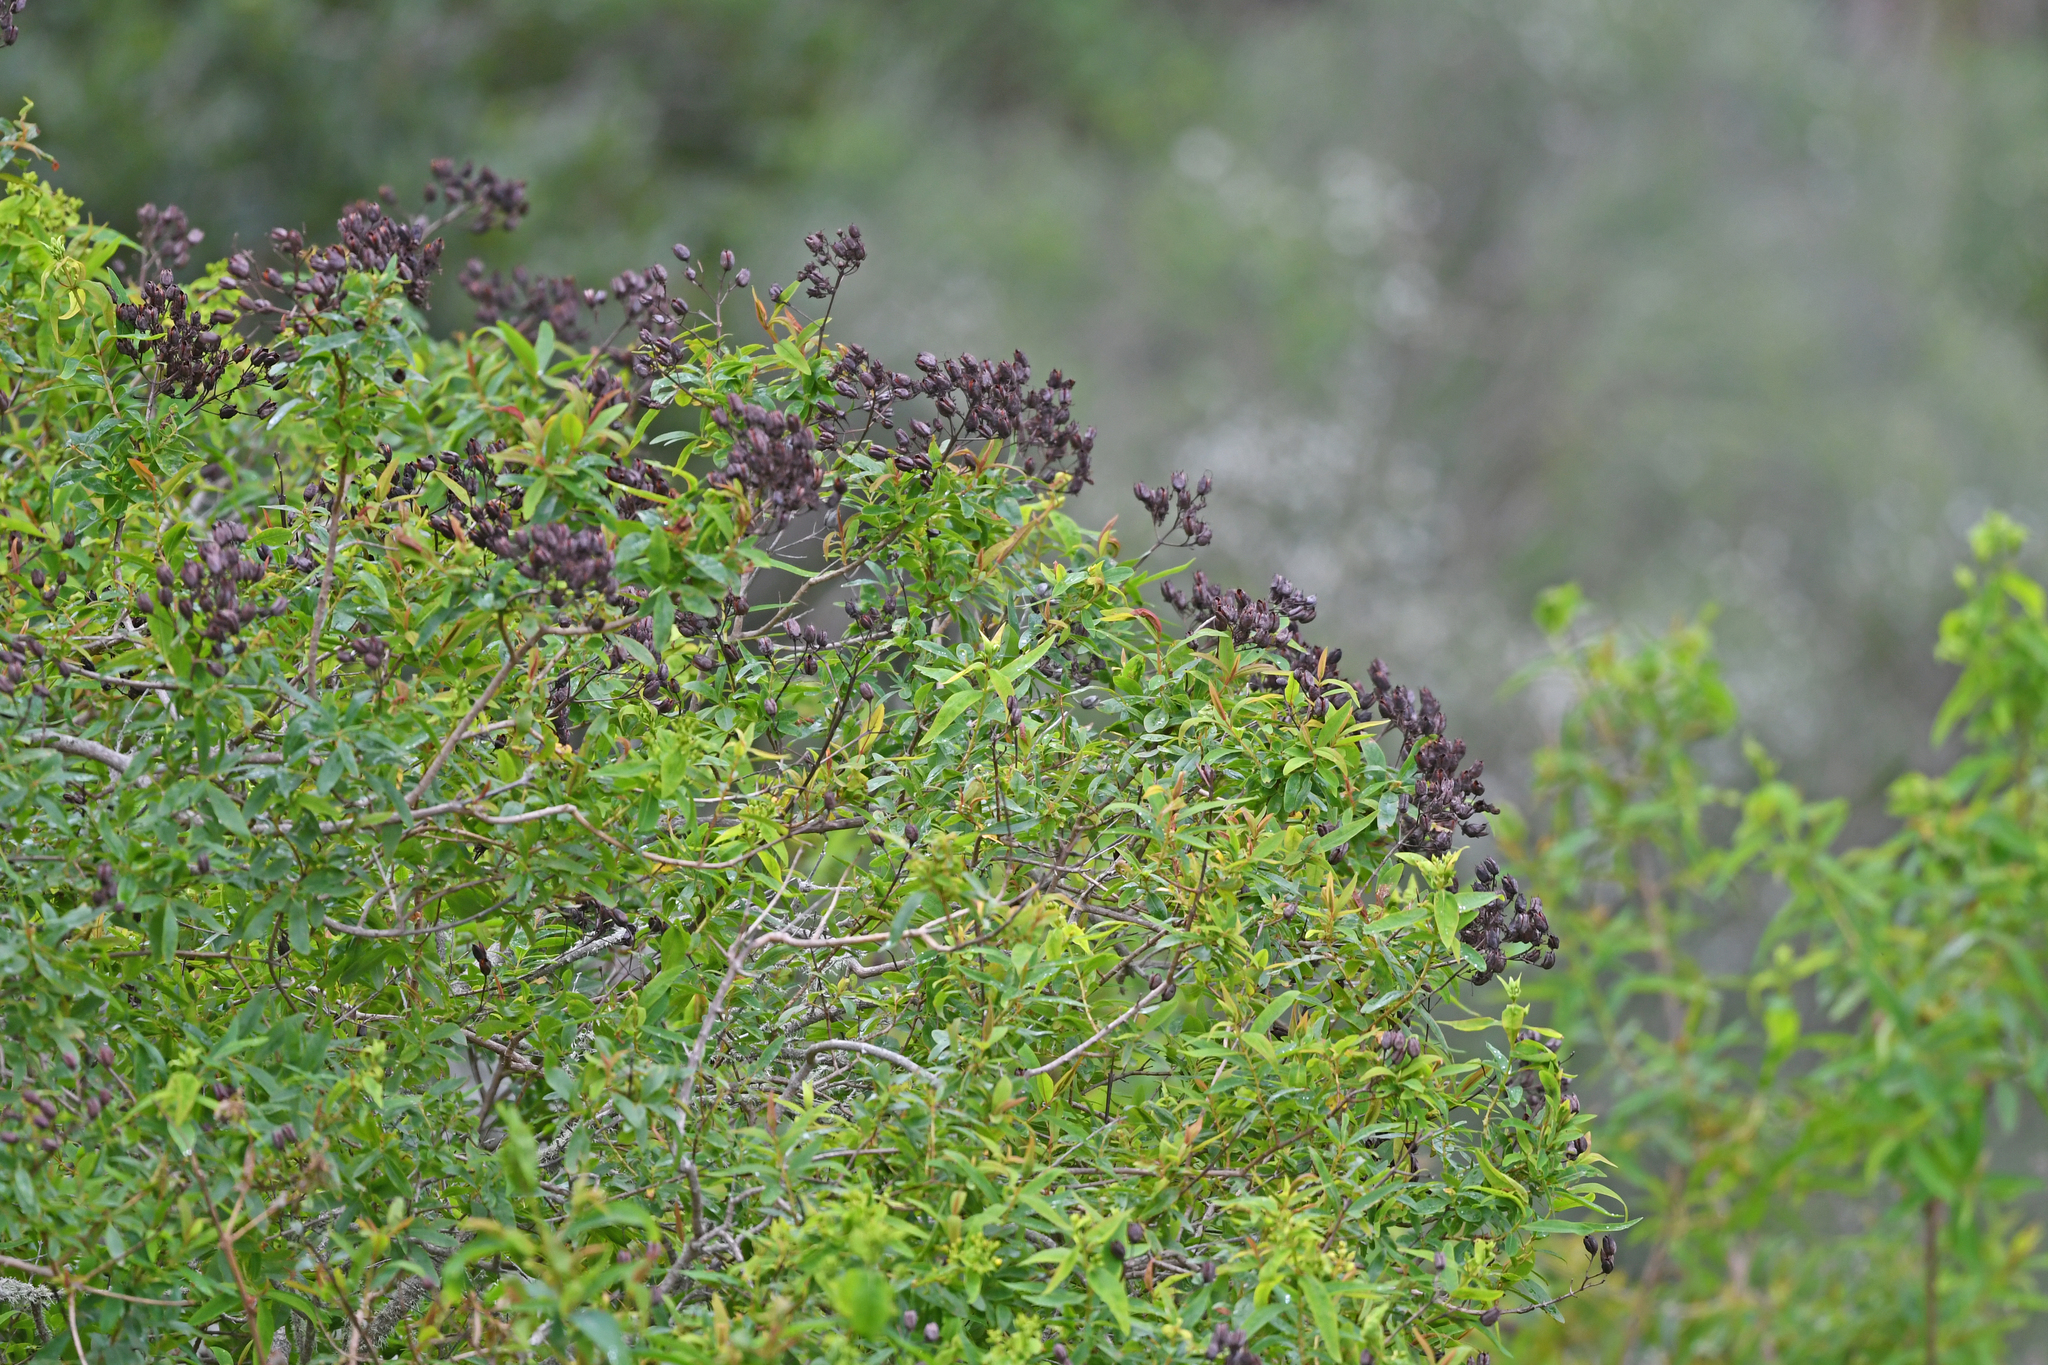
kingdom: Plantae
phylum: Tracheophyta
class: Magnoliopsida
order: Malpighiales
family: Hypericaceae
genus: Hypericum
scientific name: Hypericum canariense
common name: Canary island st. johnswort
